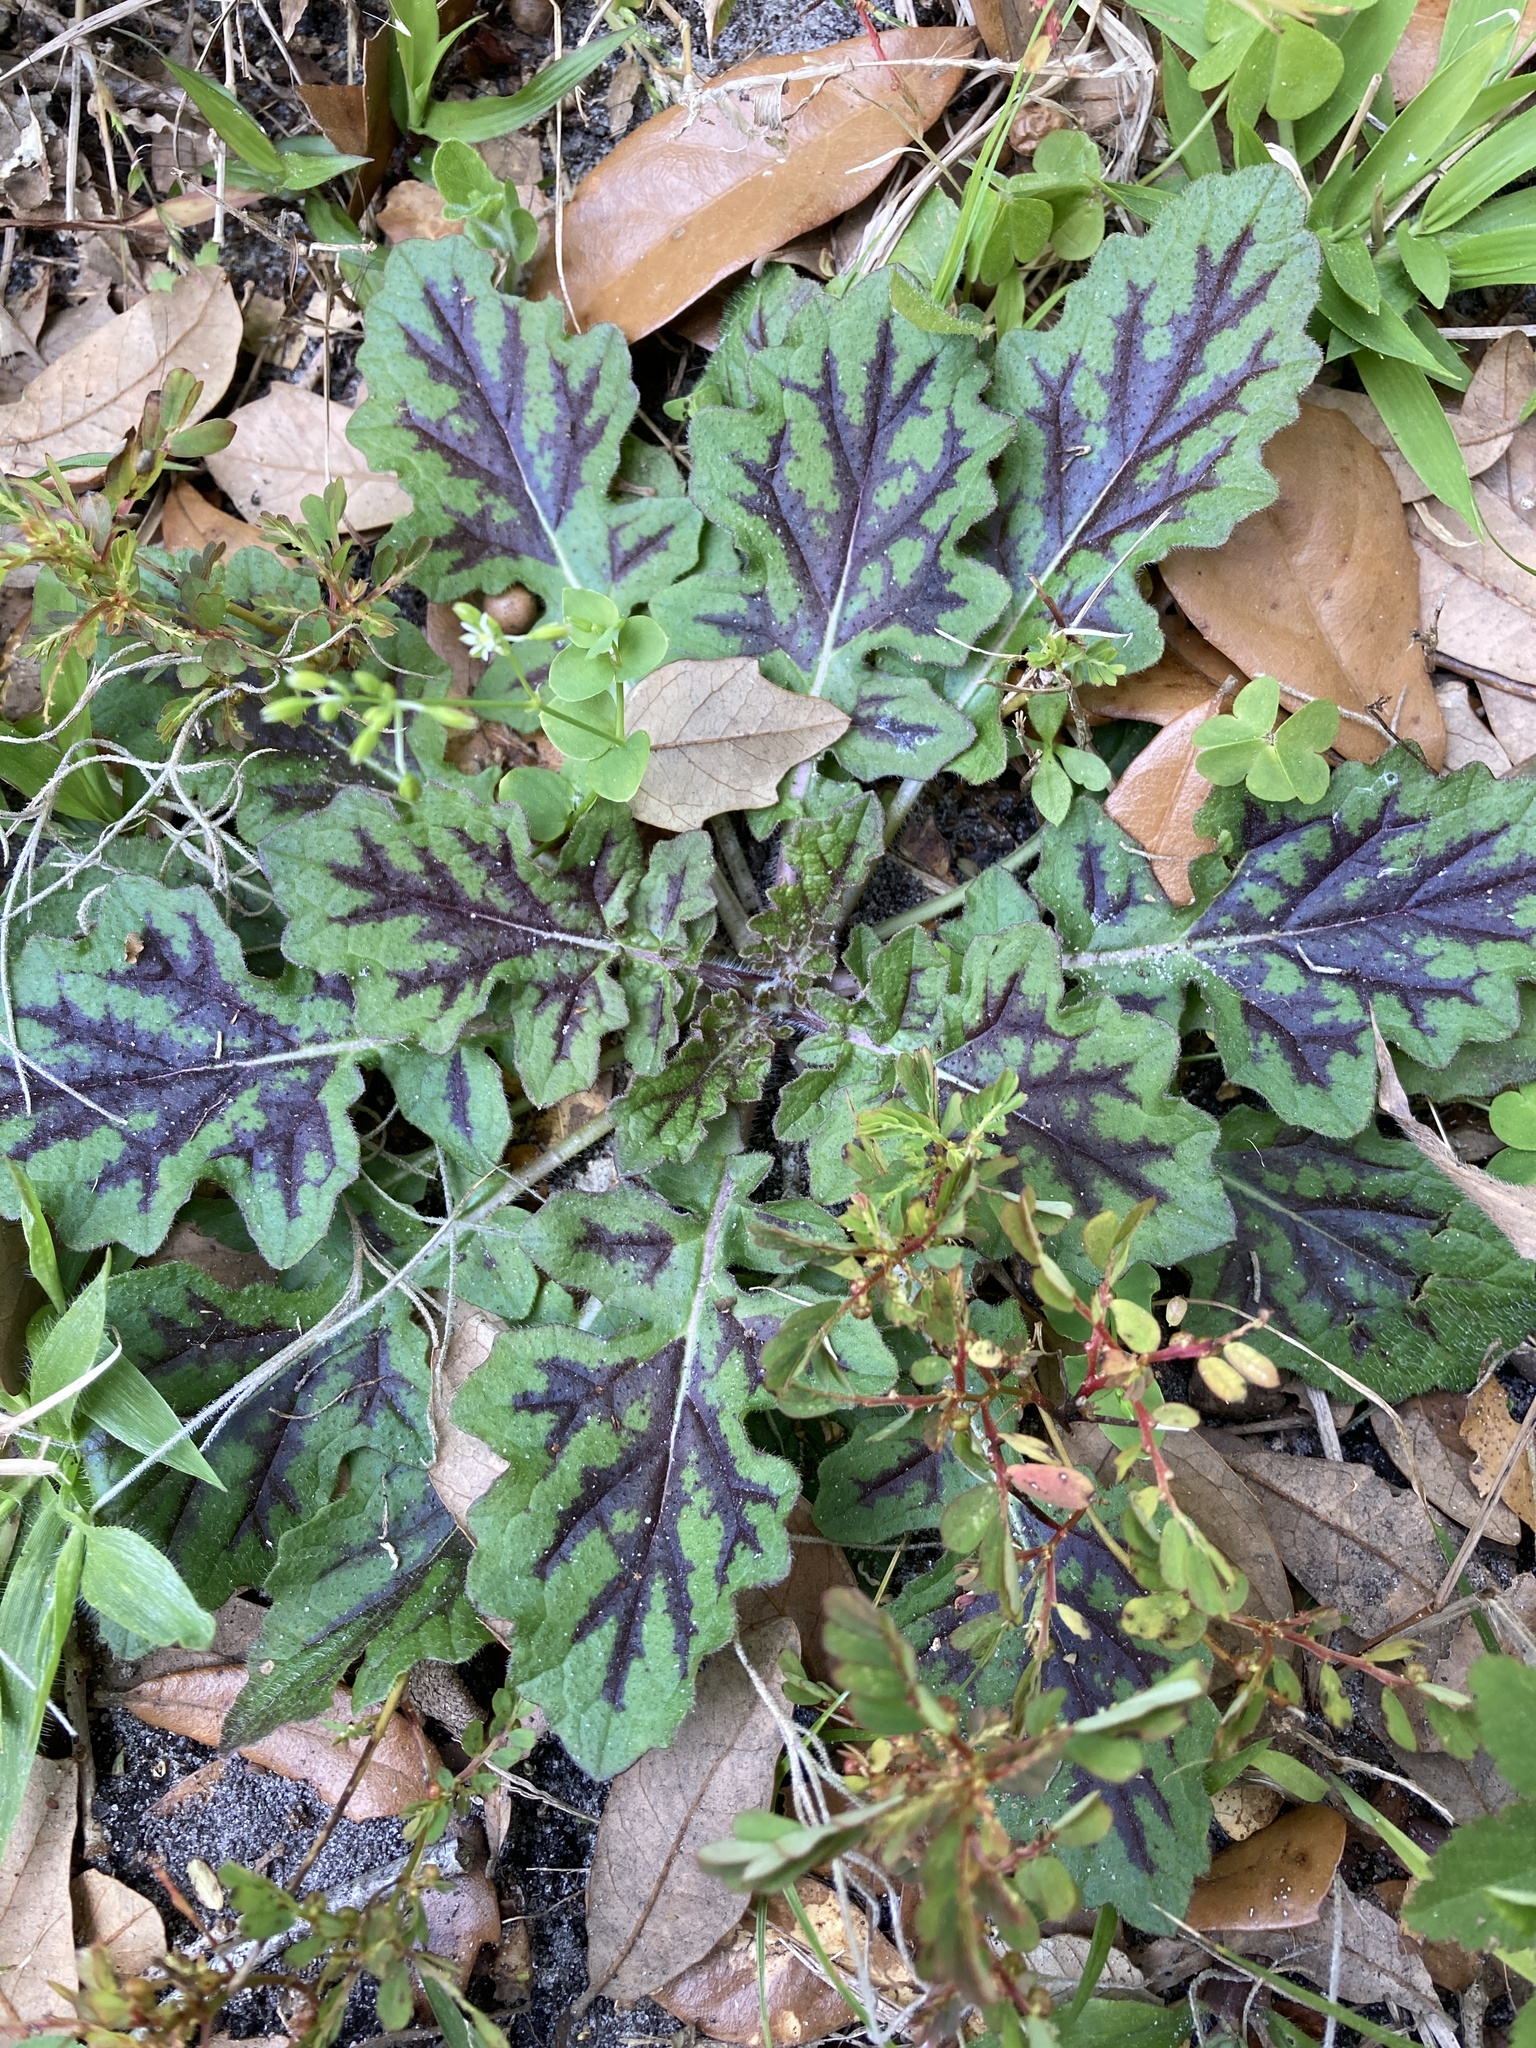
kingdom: Plantae
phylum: Tracheophyta
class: Magnoliopsida
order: Lamiales
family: Lamiaceae
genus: Salvia
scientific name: Salvia lyrata
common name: Cancerweed
